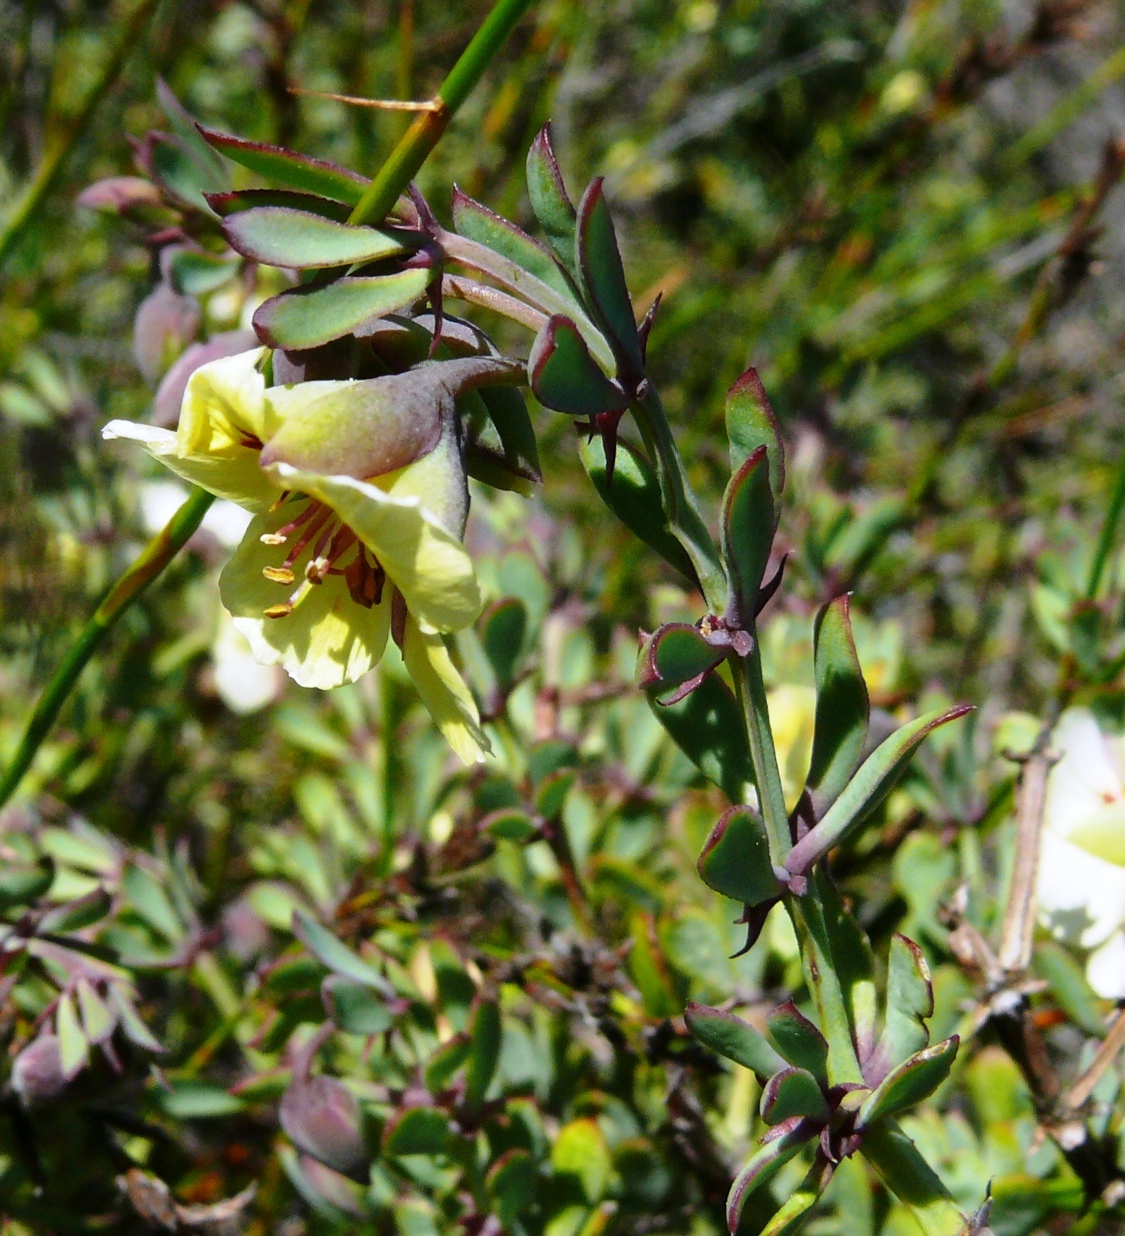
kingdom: Plantae
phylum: Tracheophyta
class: Magnoliopsida
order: Zygophyllales
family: Zygophyllaceae
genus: Roepera
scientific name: Roepera fulva
